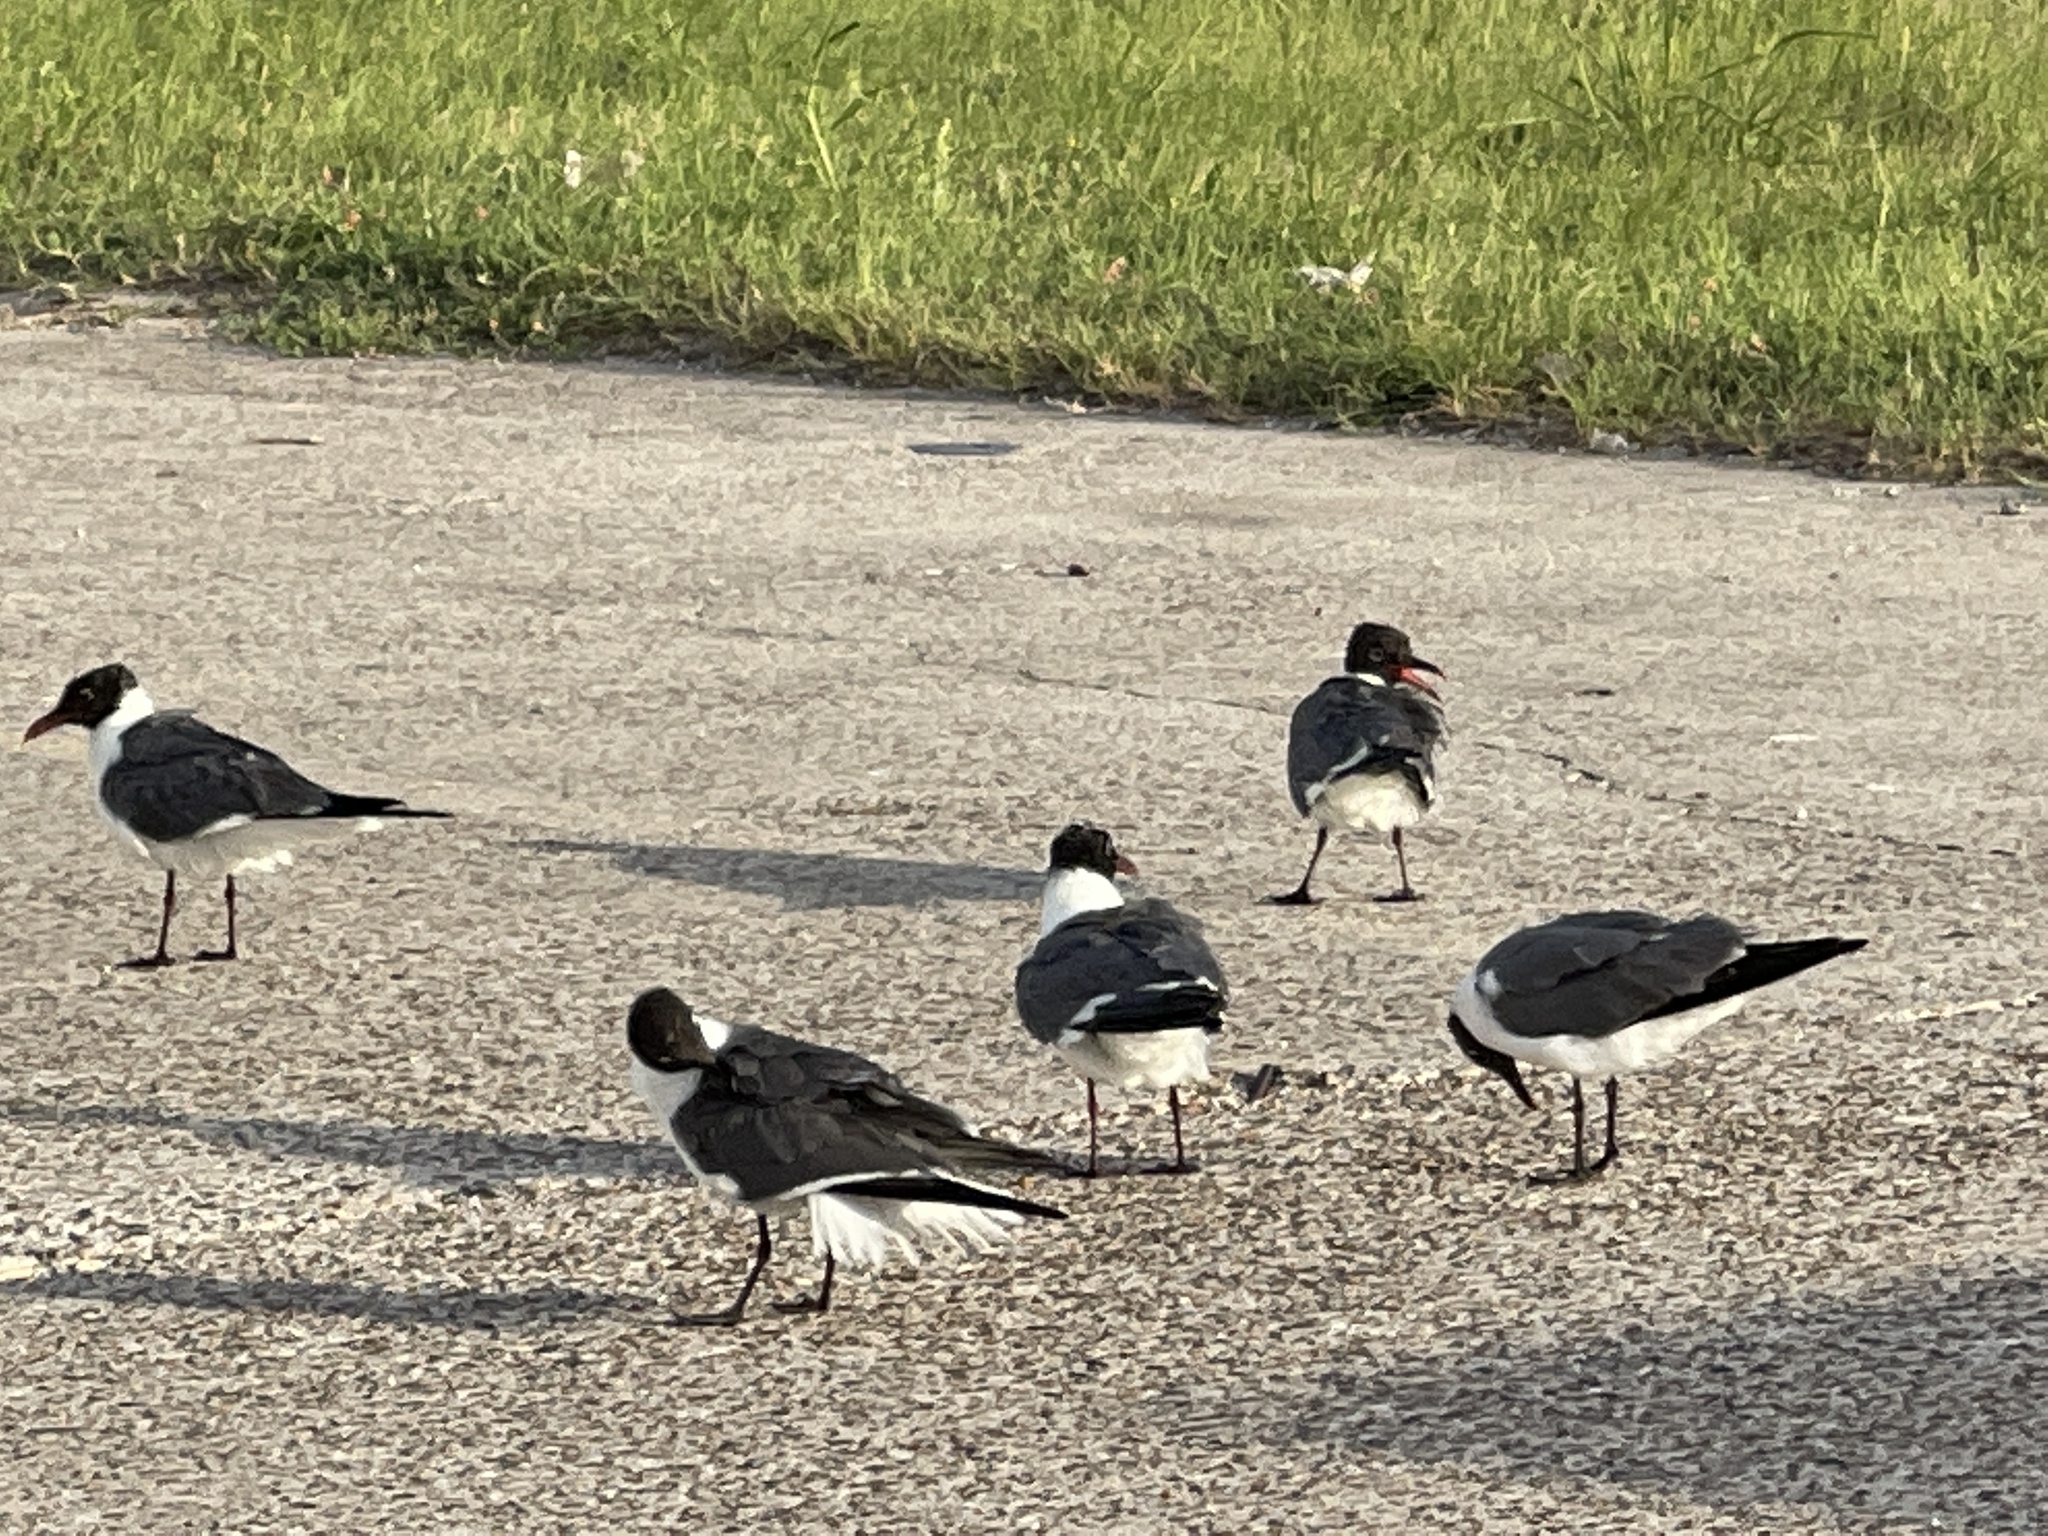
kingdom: Animalia
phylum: Chordata
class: Aves
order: Charadriiformes
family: Laridae
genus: Leucophaeus
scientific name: Leucophaeus atricilla
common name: Laughing gull
